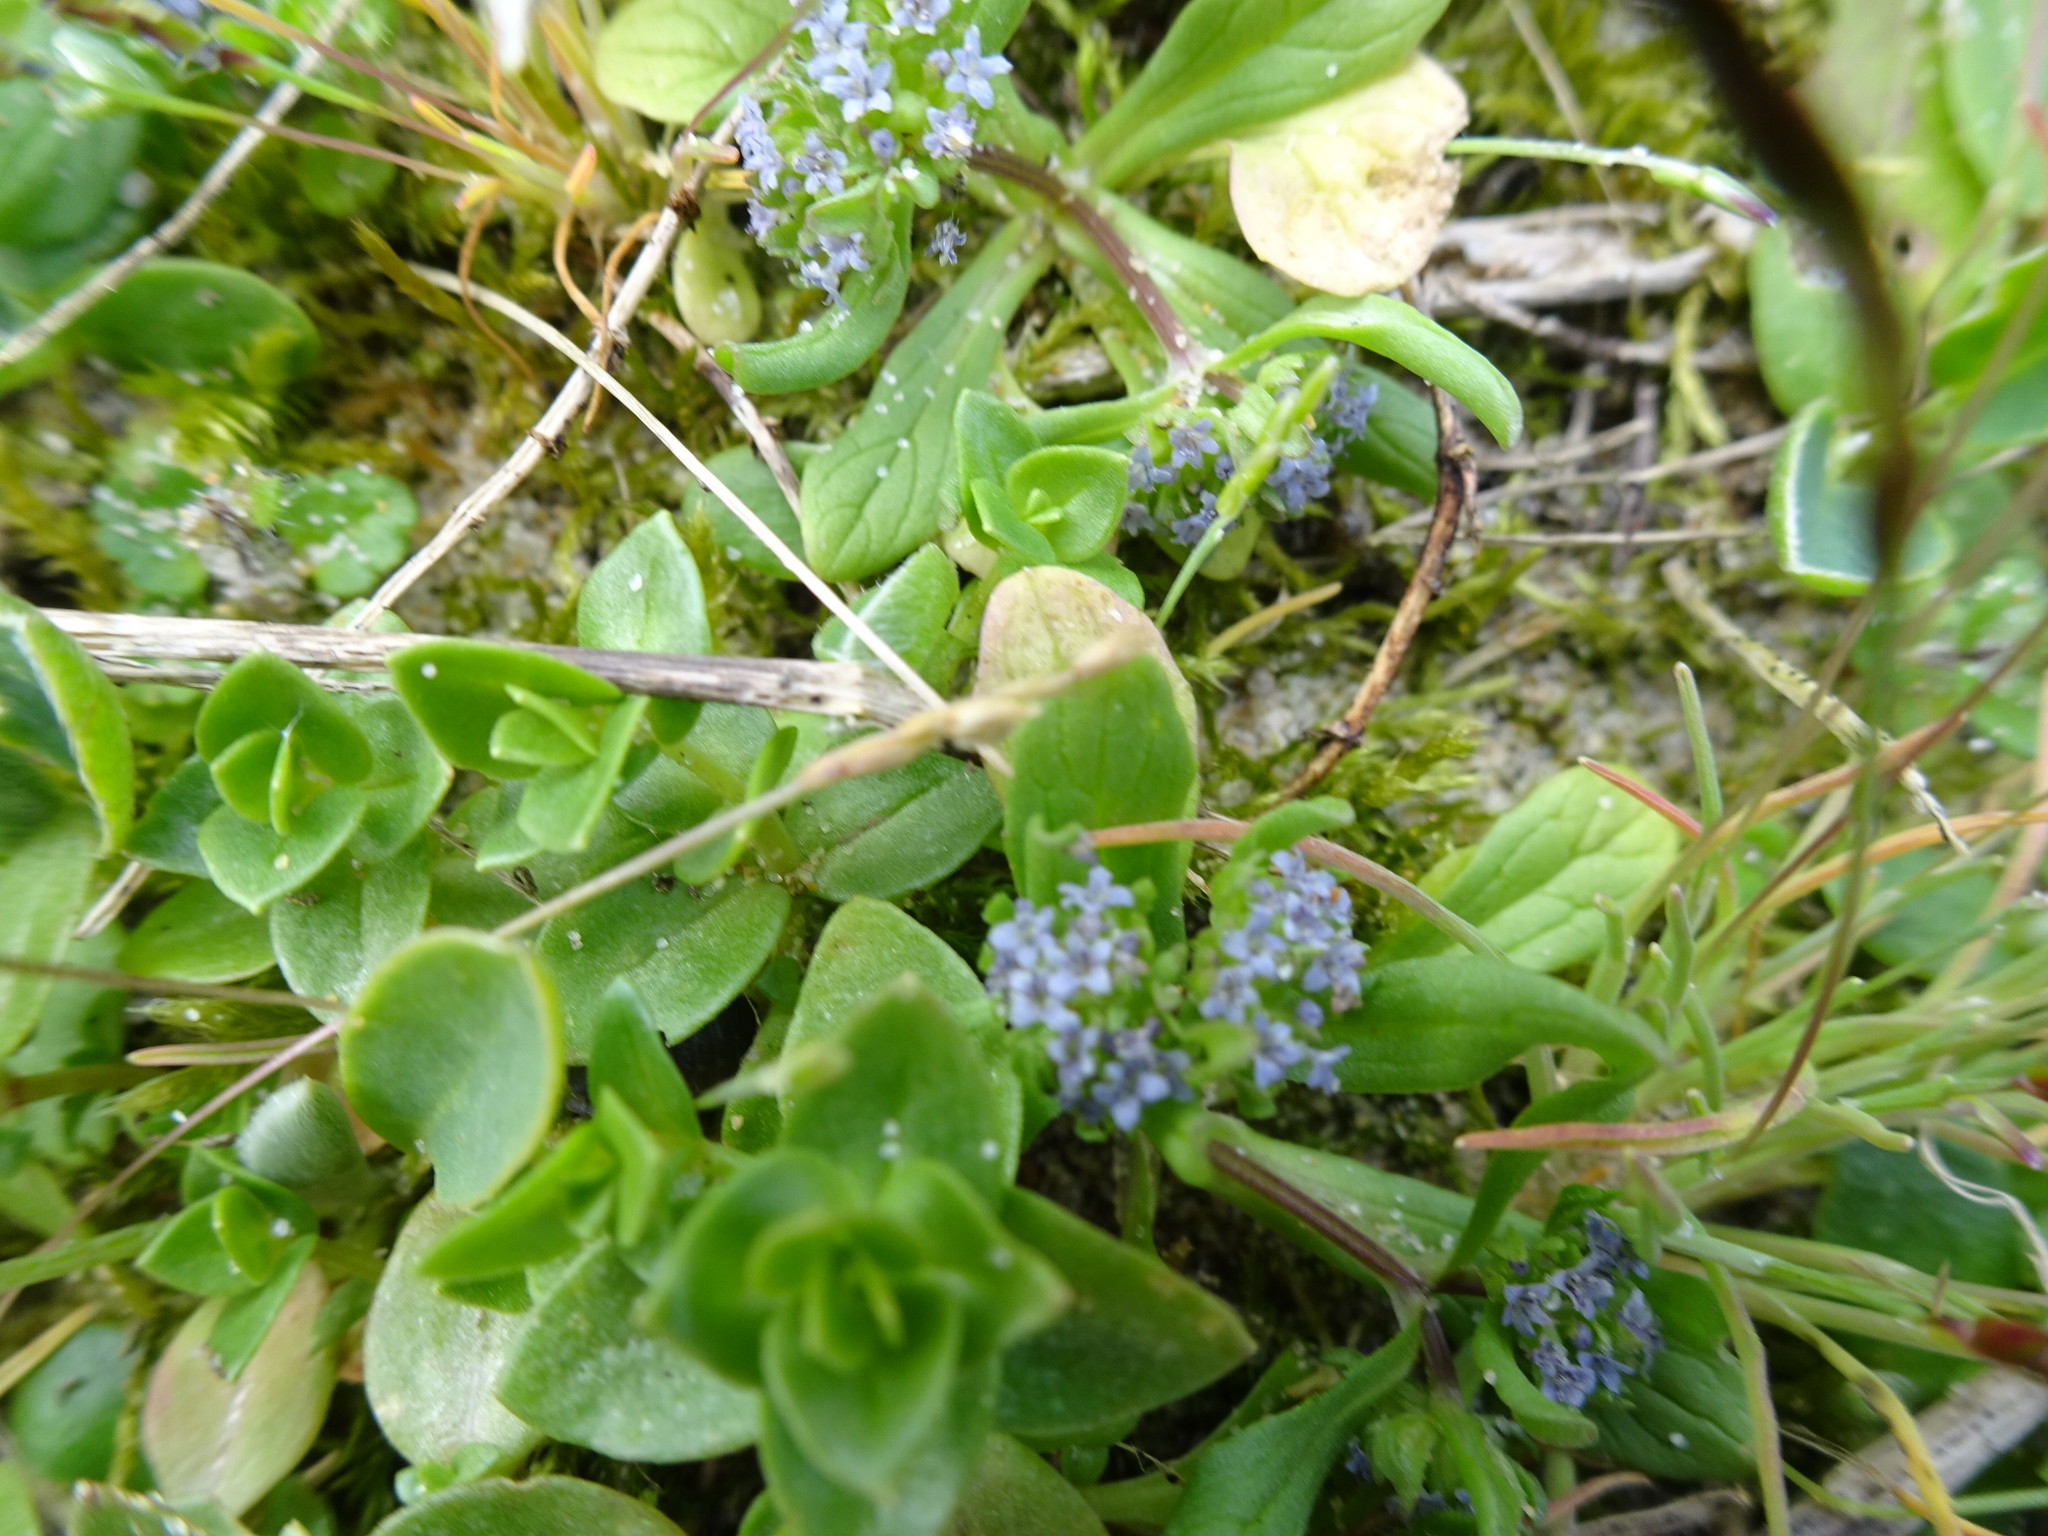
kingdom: Plantae
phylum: Tracheophyta
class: Magnoliopsida
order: Dipsacales
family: Caprifoliaceae
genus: Valerianella
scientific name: Valerianella locusta
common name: Common cornsalad
